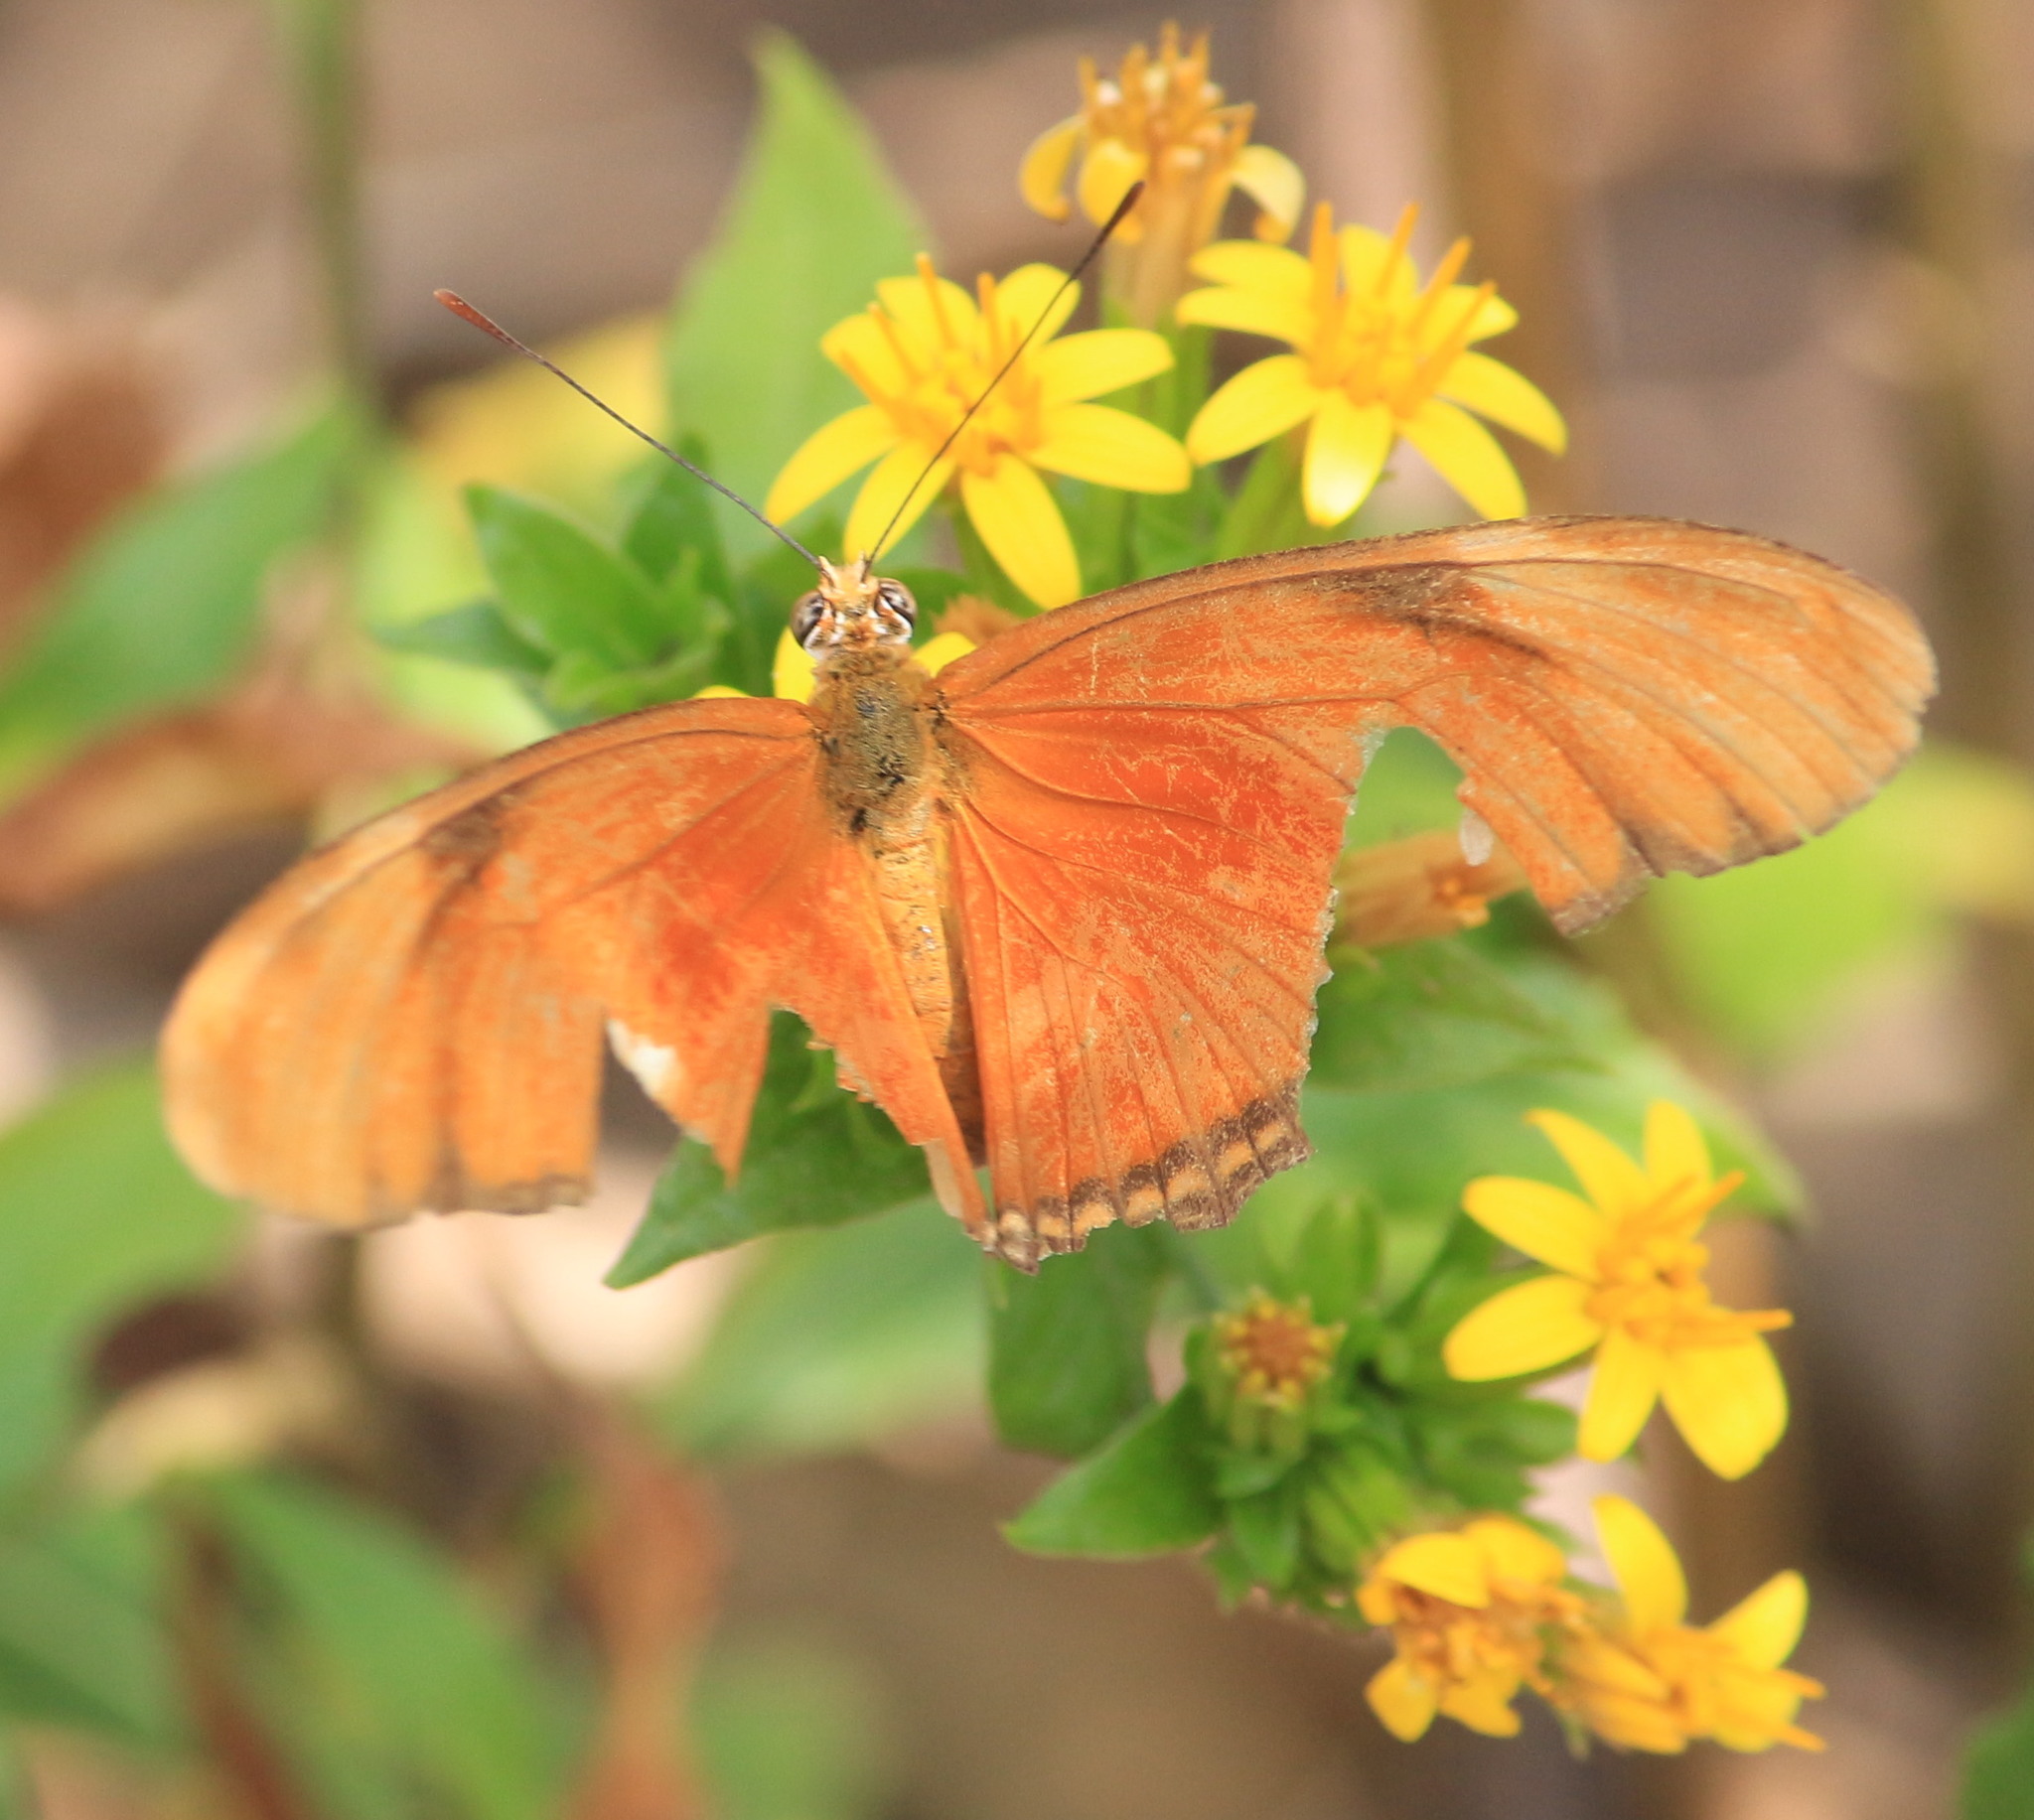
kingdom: Animalia
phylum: Arthropoda
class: Insecta
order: Lepidoptera
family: Nymphalidae
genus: Dryas
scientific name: Dryas iulia
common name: Flambeau
